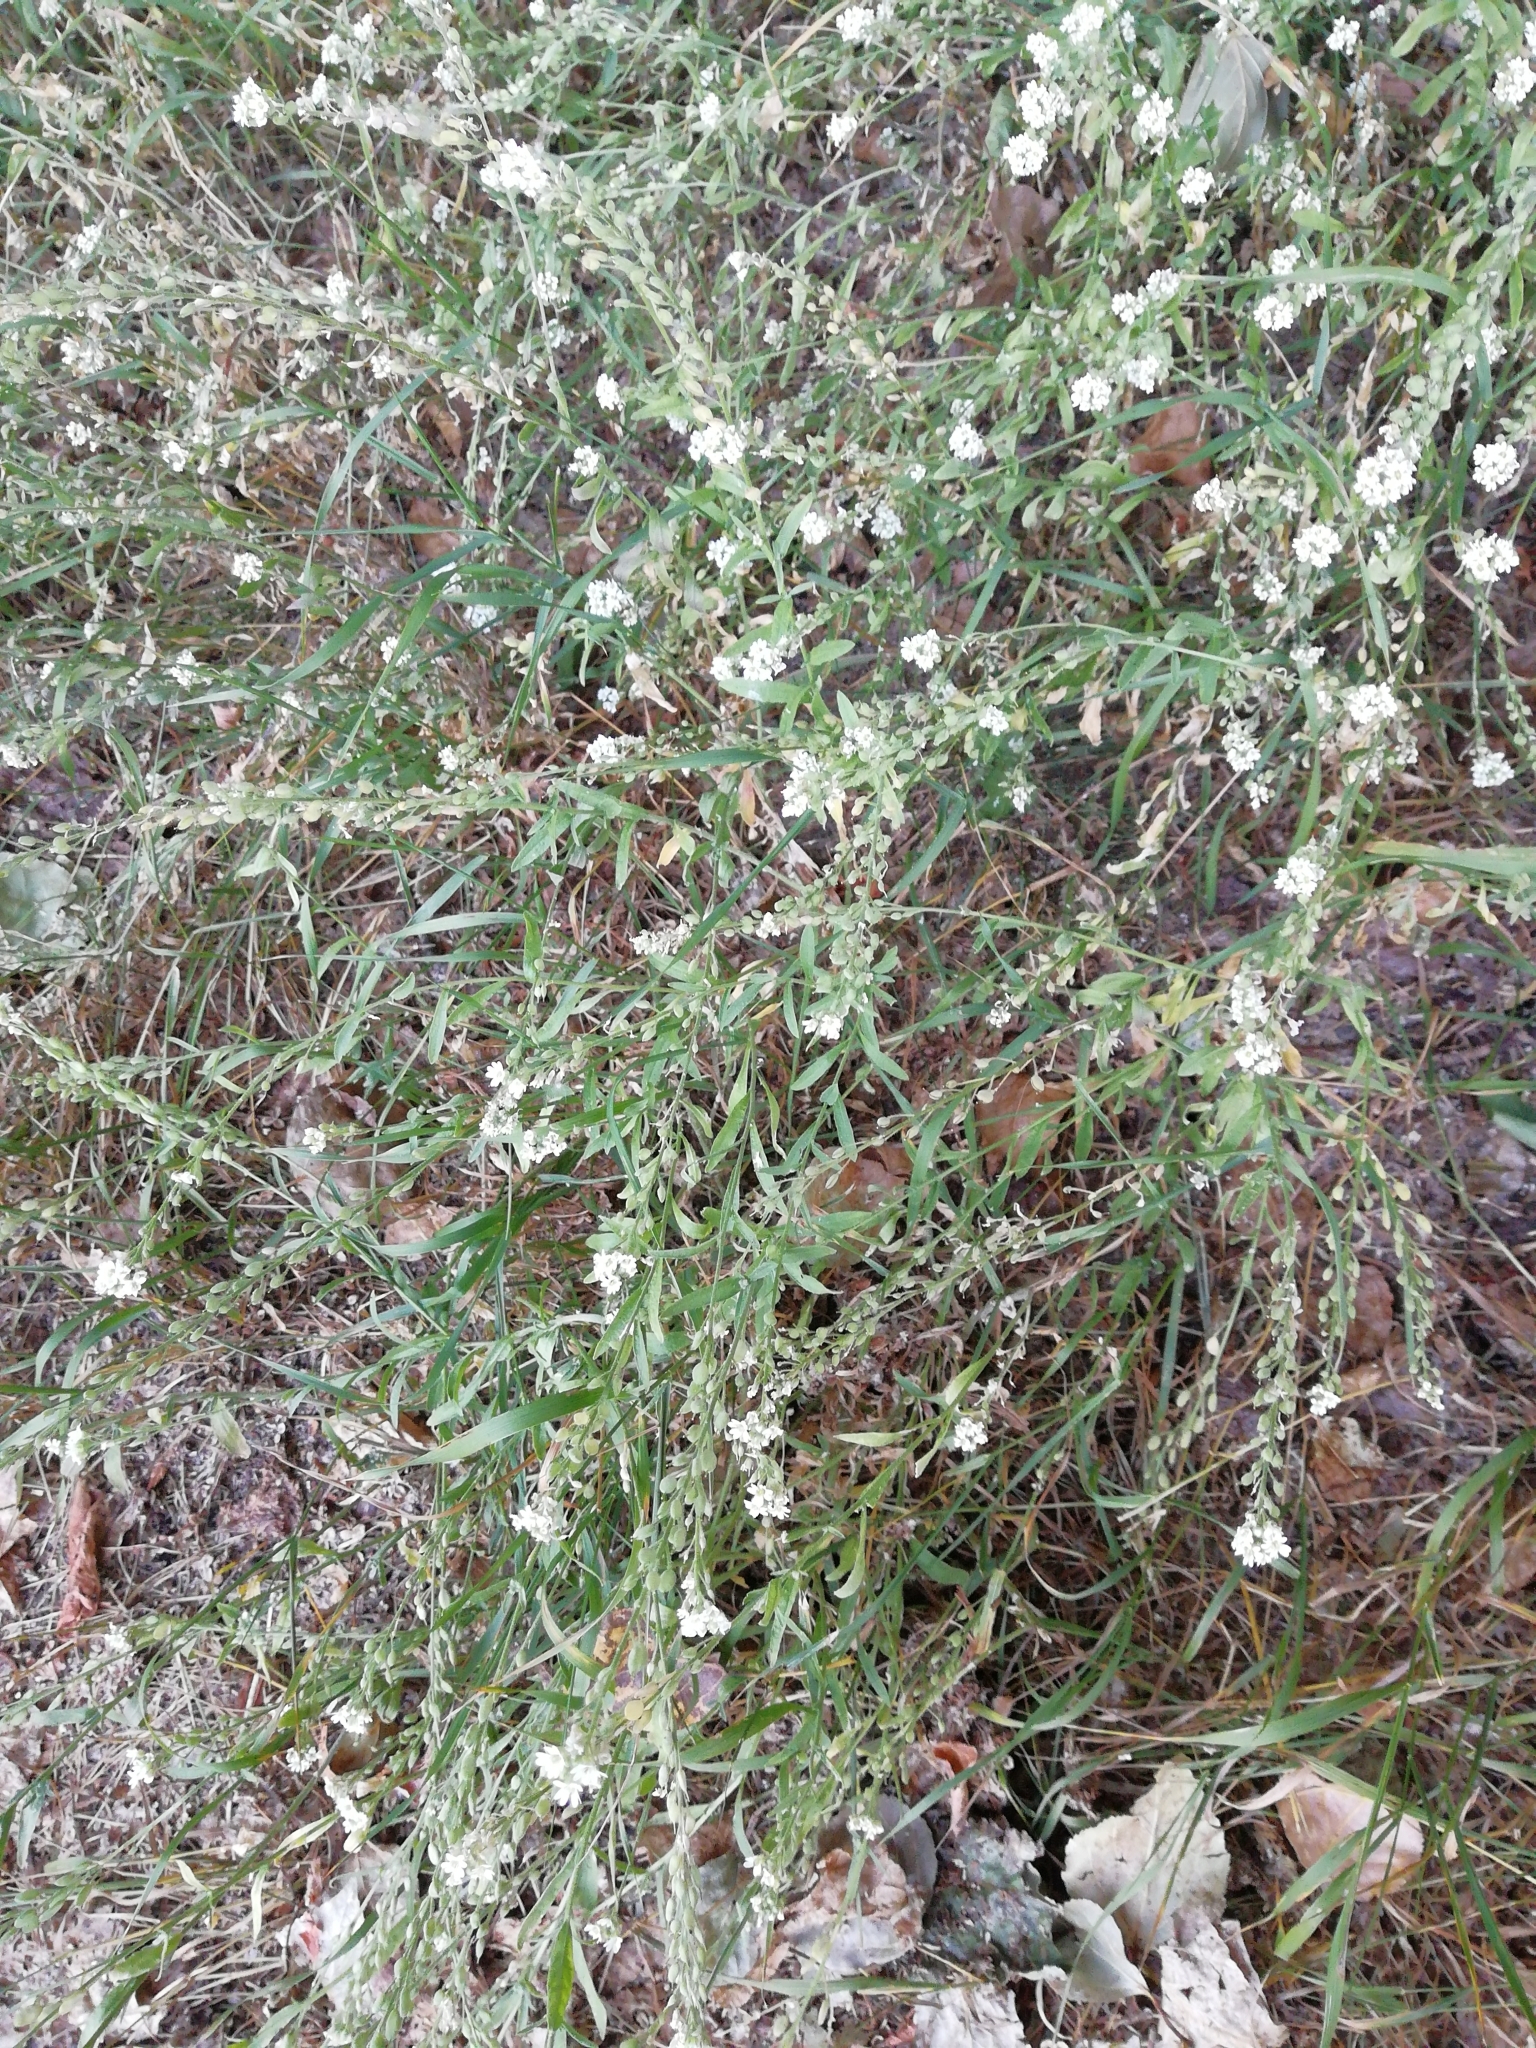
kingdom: Plantae
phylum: Tracheophyta
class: Magnoliopsida
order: Brassicales
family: Brassicaceae
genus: Berteroa
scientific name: Berteroa incana
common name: Hoary alison
